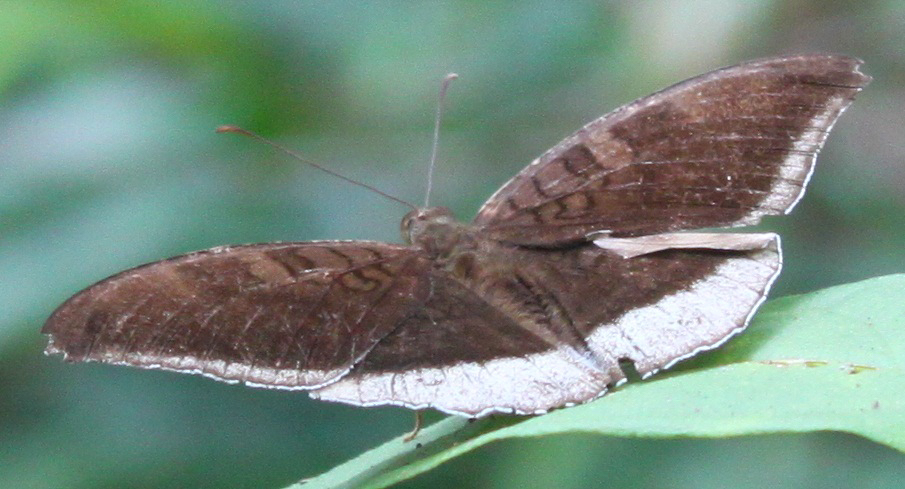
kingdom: Animalia
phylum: Arthropoda
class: Insecta
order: Lepidoptera
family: Nymphalidae
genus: Tanaecia
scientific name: Tanaecia lepidea
